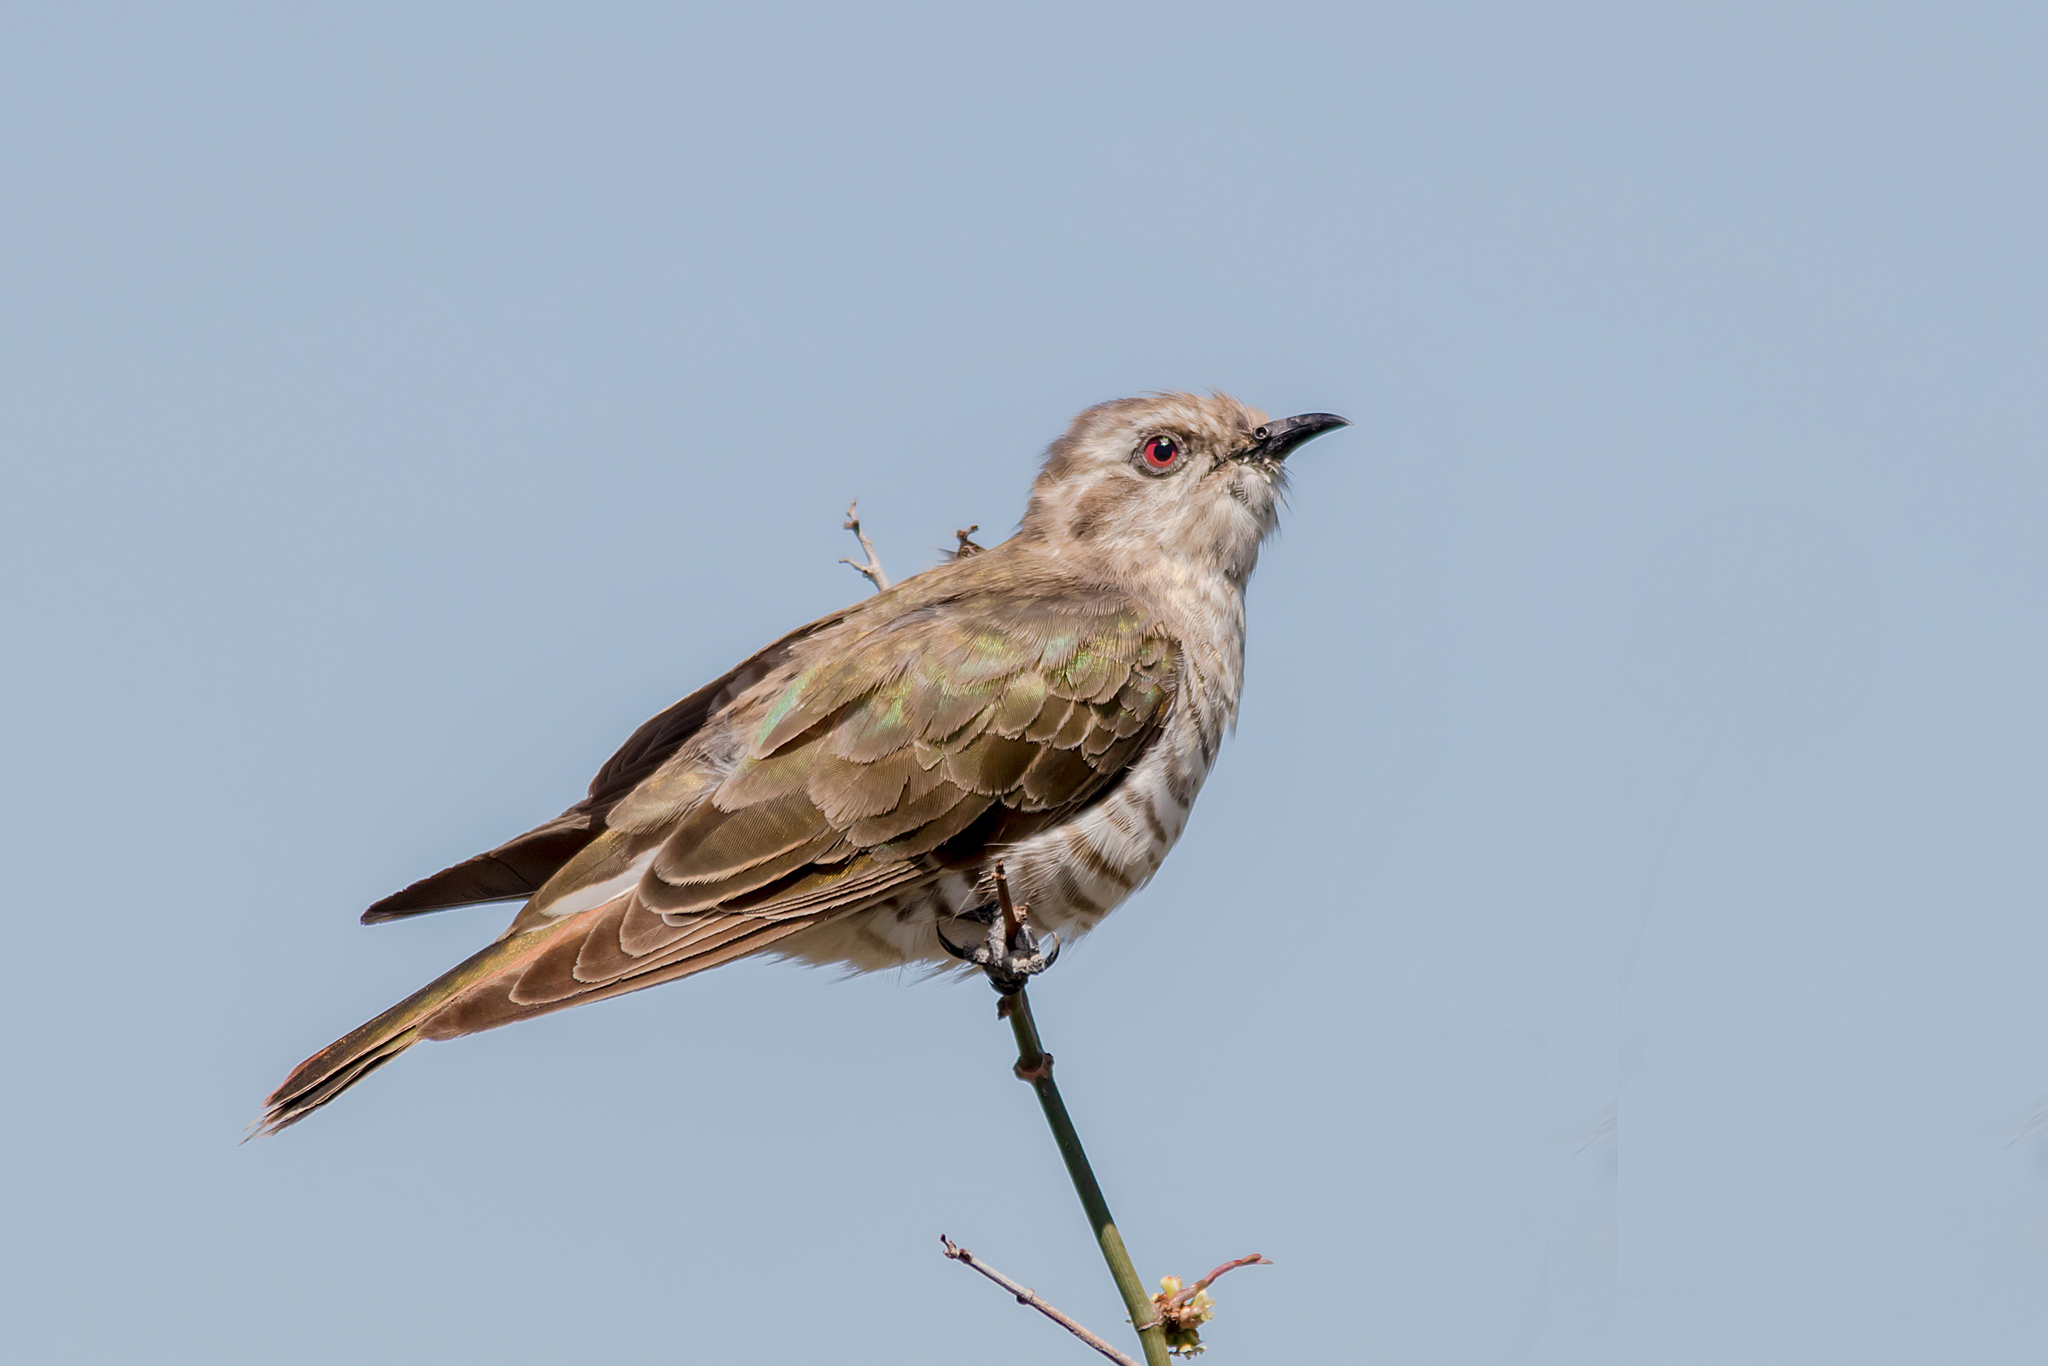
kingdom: Animalia
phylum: Chordata
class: Aves
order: Cuculiformes
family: Cuculidae
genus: Chrysococcyx
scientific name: Chrysococcyx basalis
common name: Horsfield's bronze cuckoo
